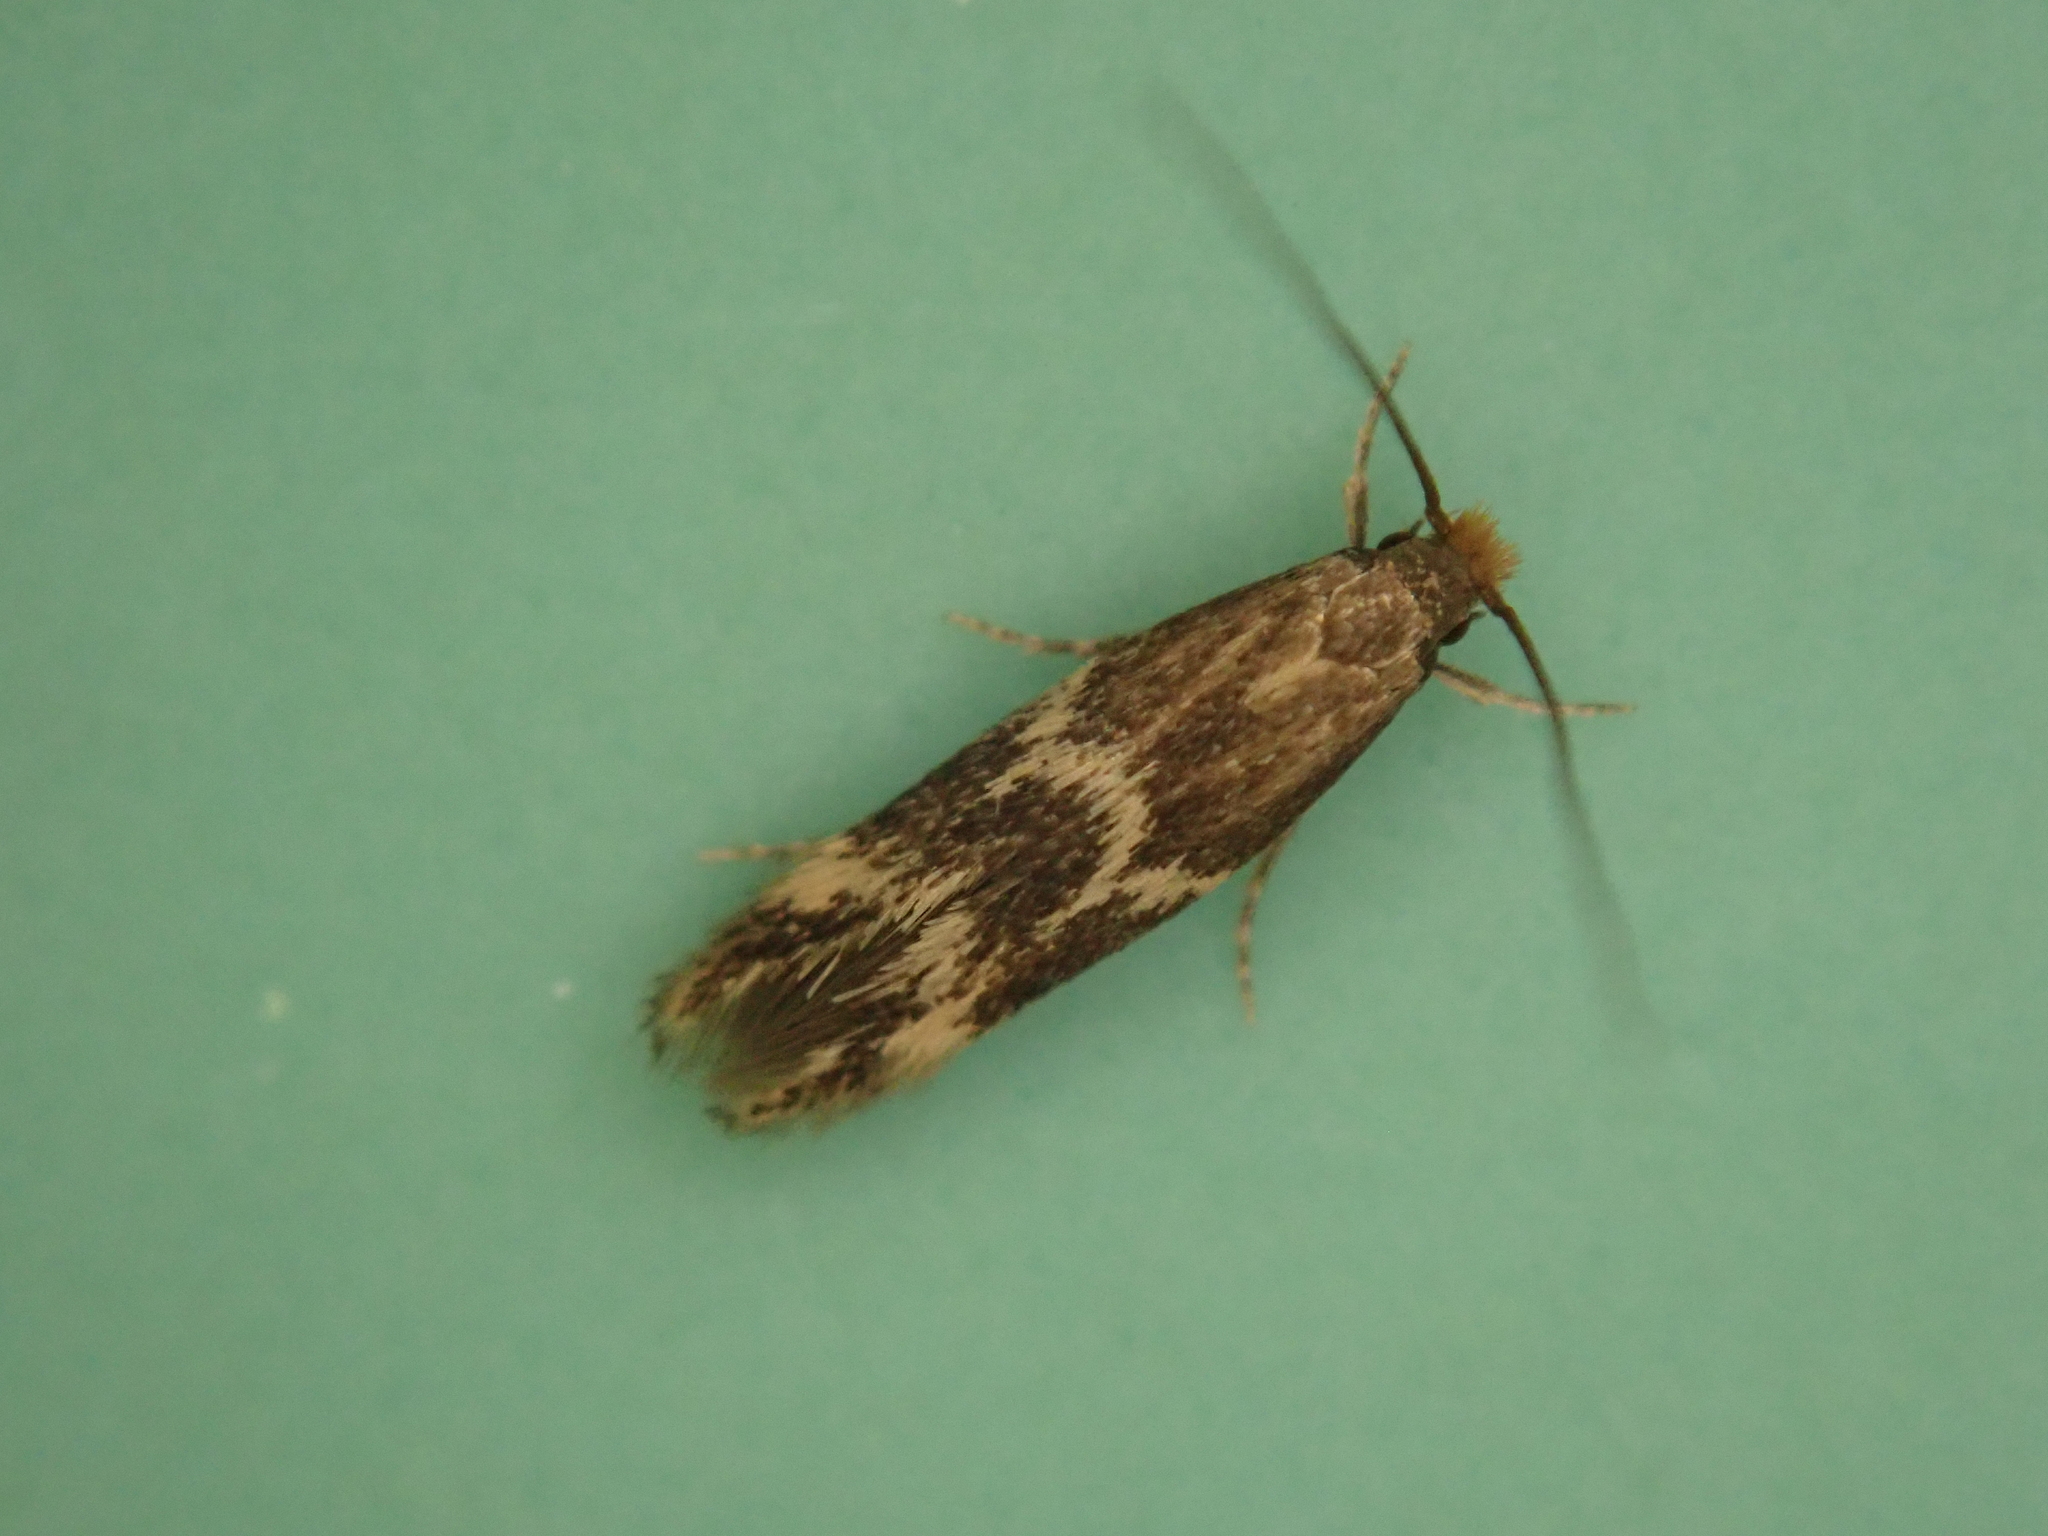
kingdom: Animalia
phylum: Arthropoda
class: Insecta
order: Lepidoptera
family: Tineidae
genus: Oinophila
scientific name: Oinophila v-flava
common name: Yellow v moth
